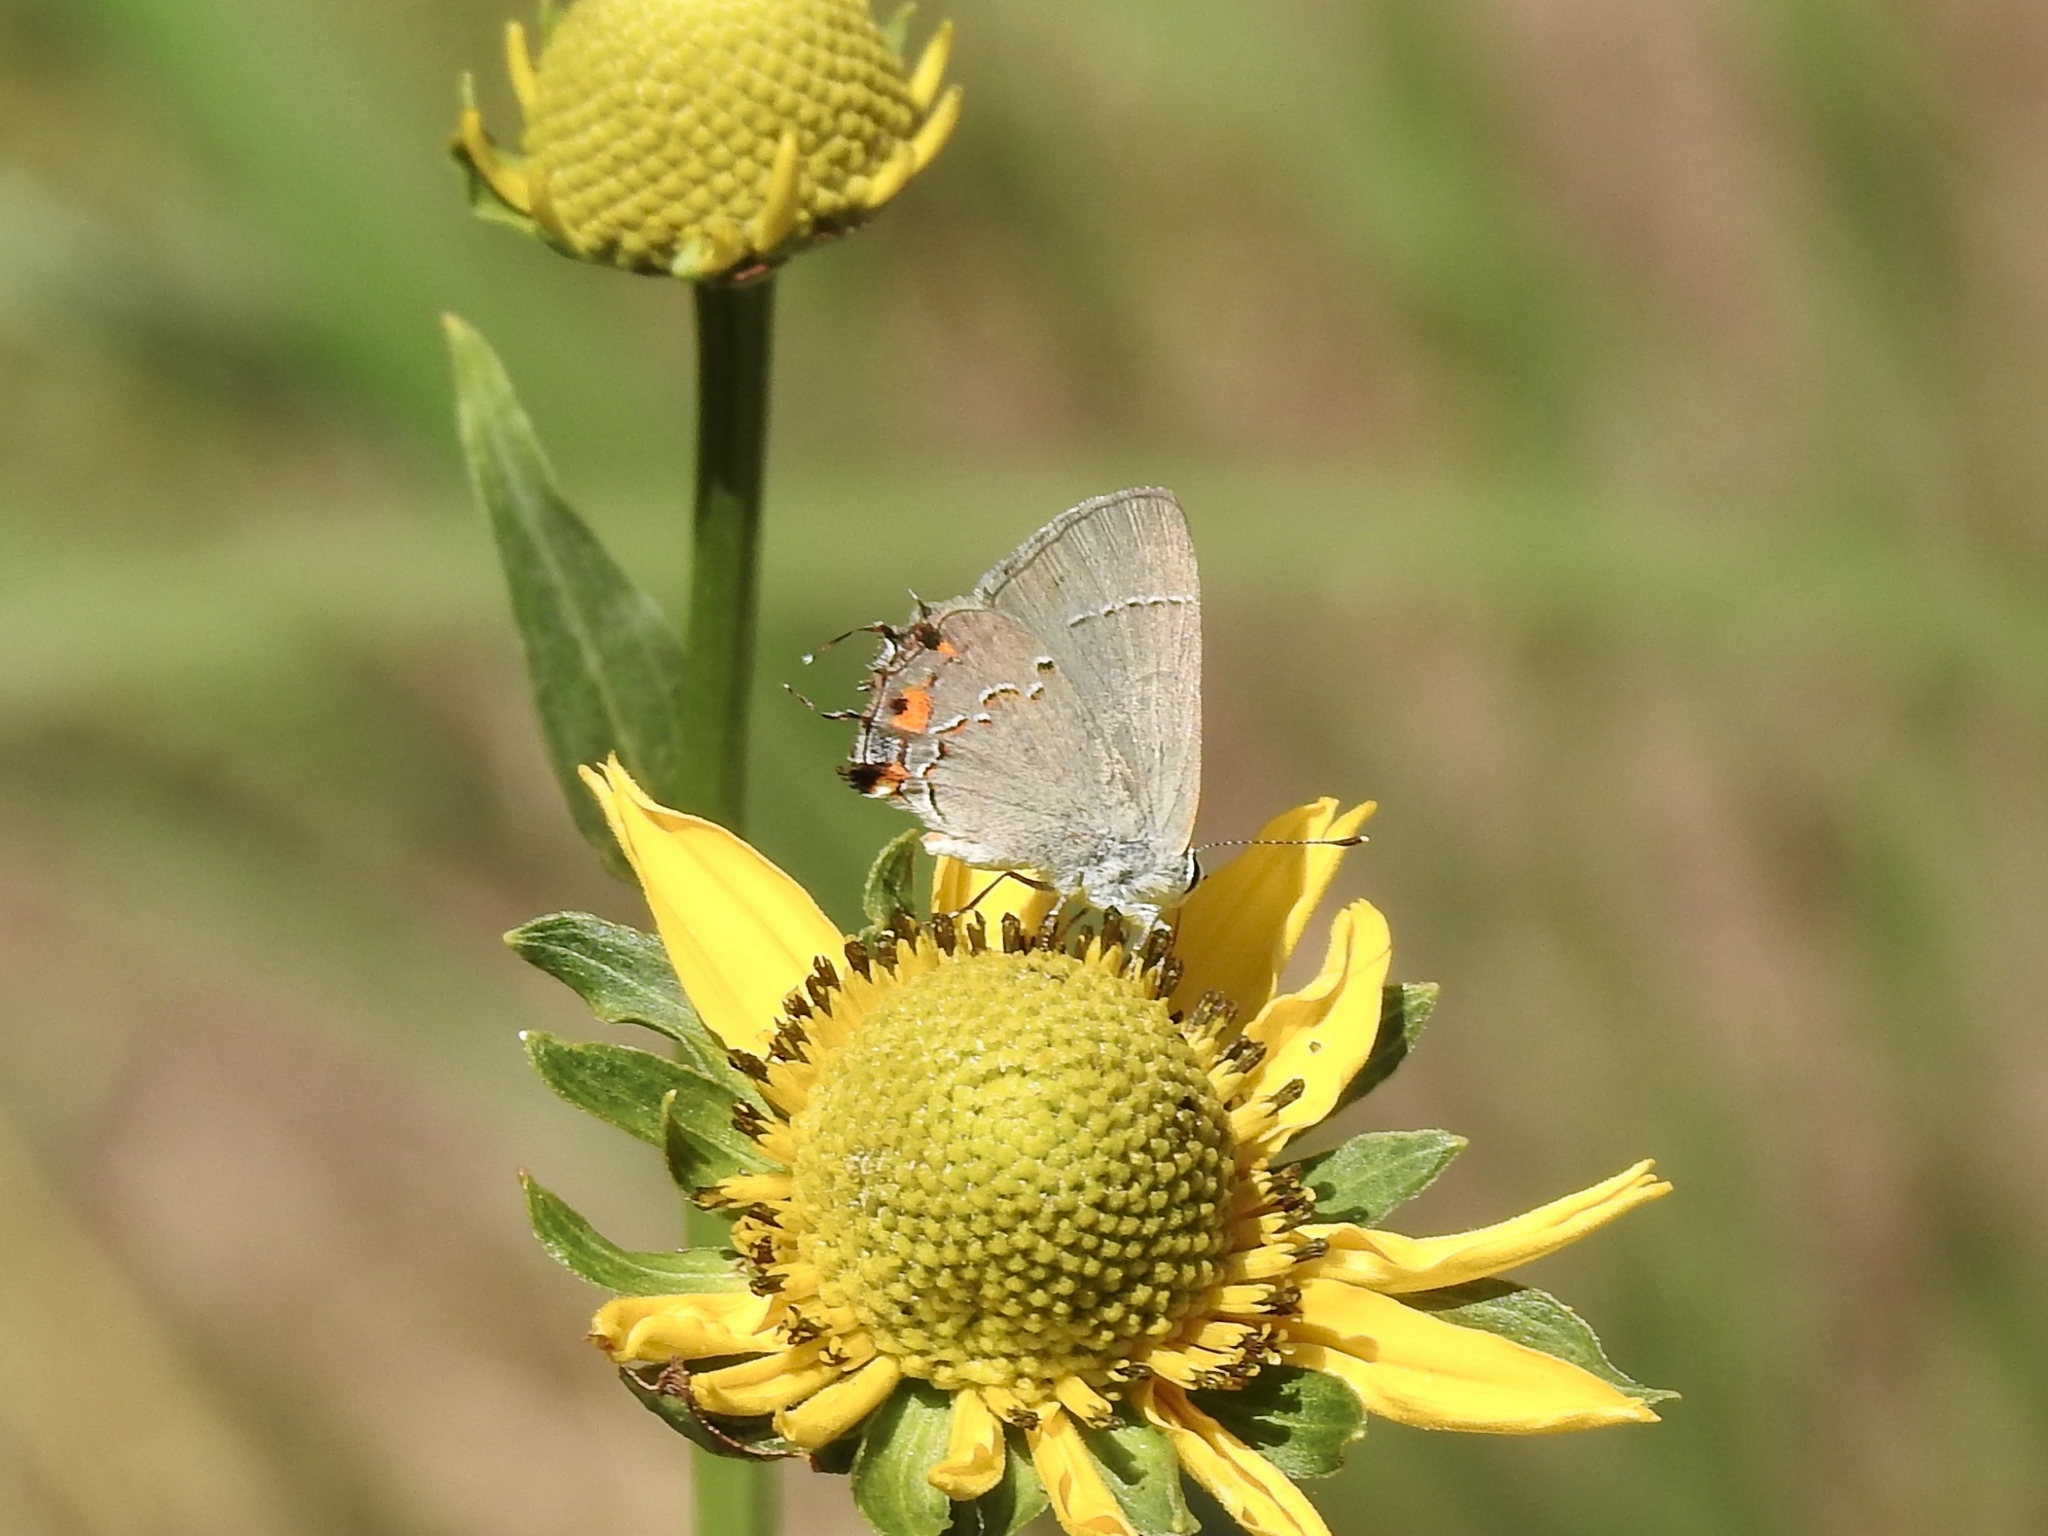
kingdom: Animalia
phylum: Arthropoda
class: Insecta
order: Lepidoptera
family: Lycaenidae
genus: Strymon
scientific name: Strymon melinus
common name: Gray hairstreak
